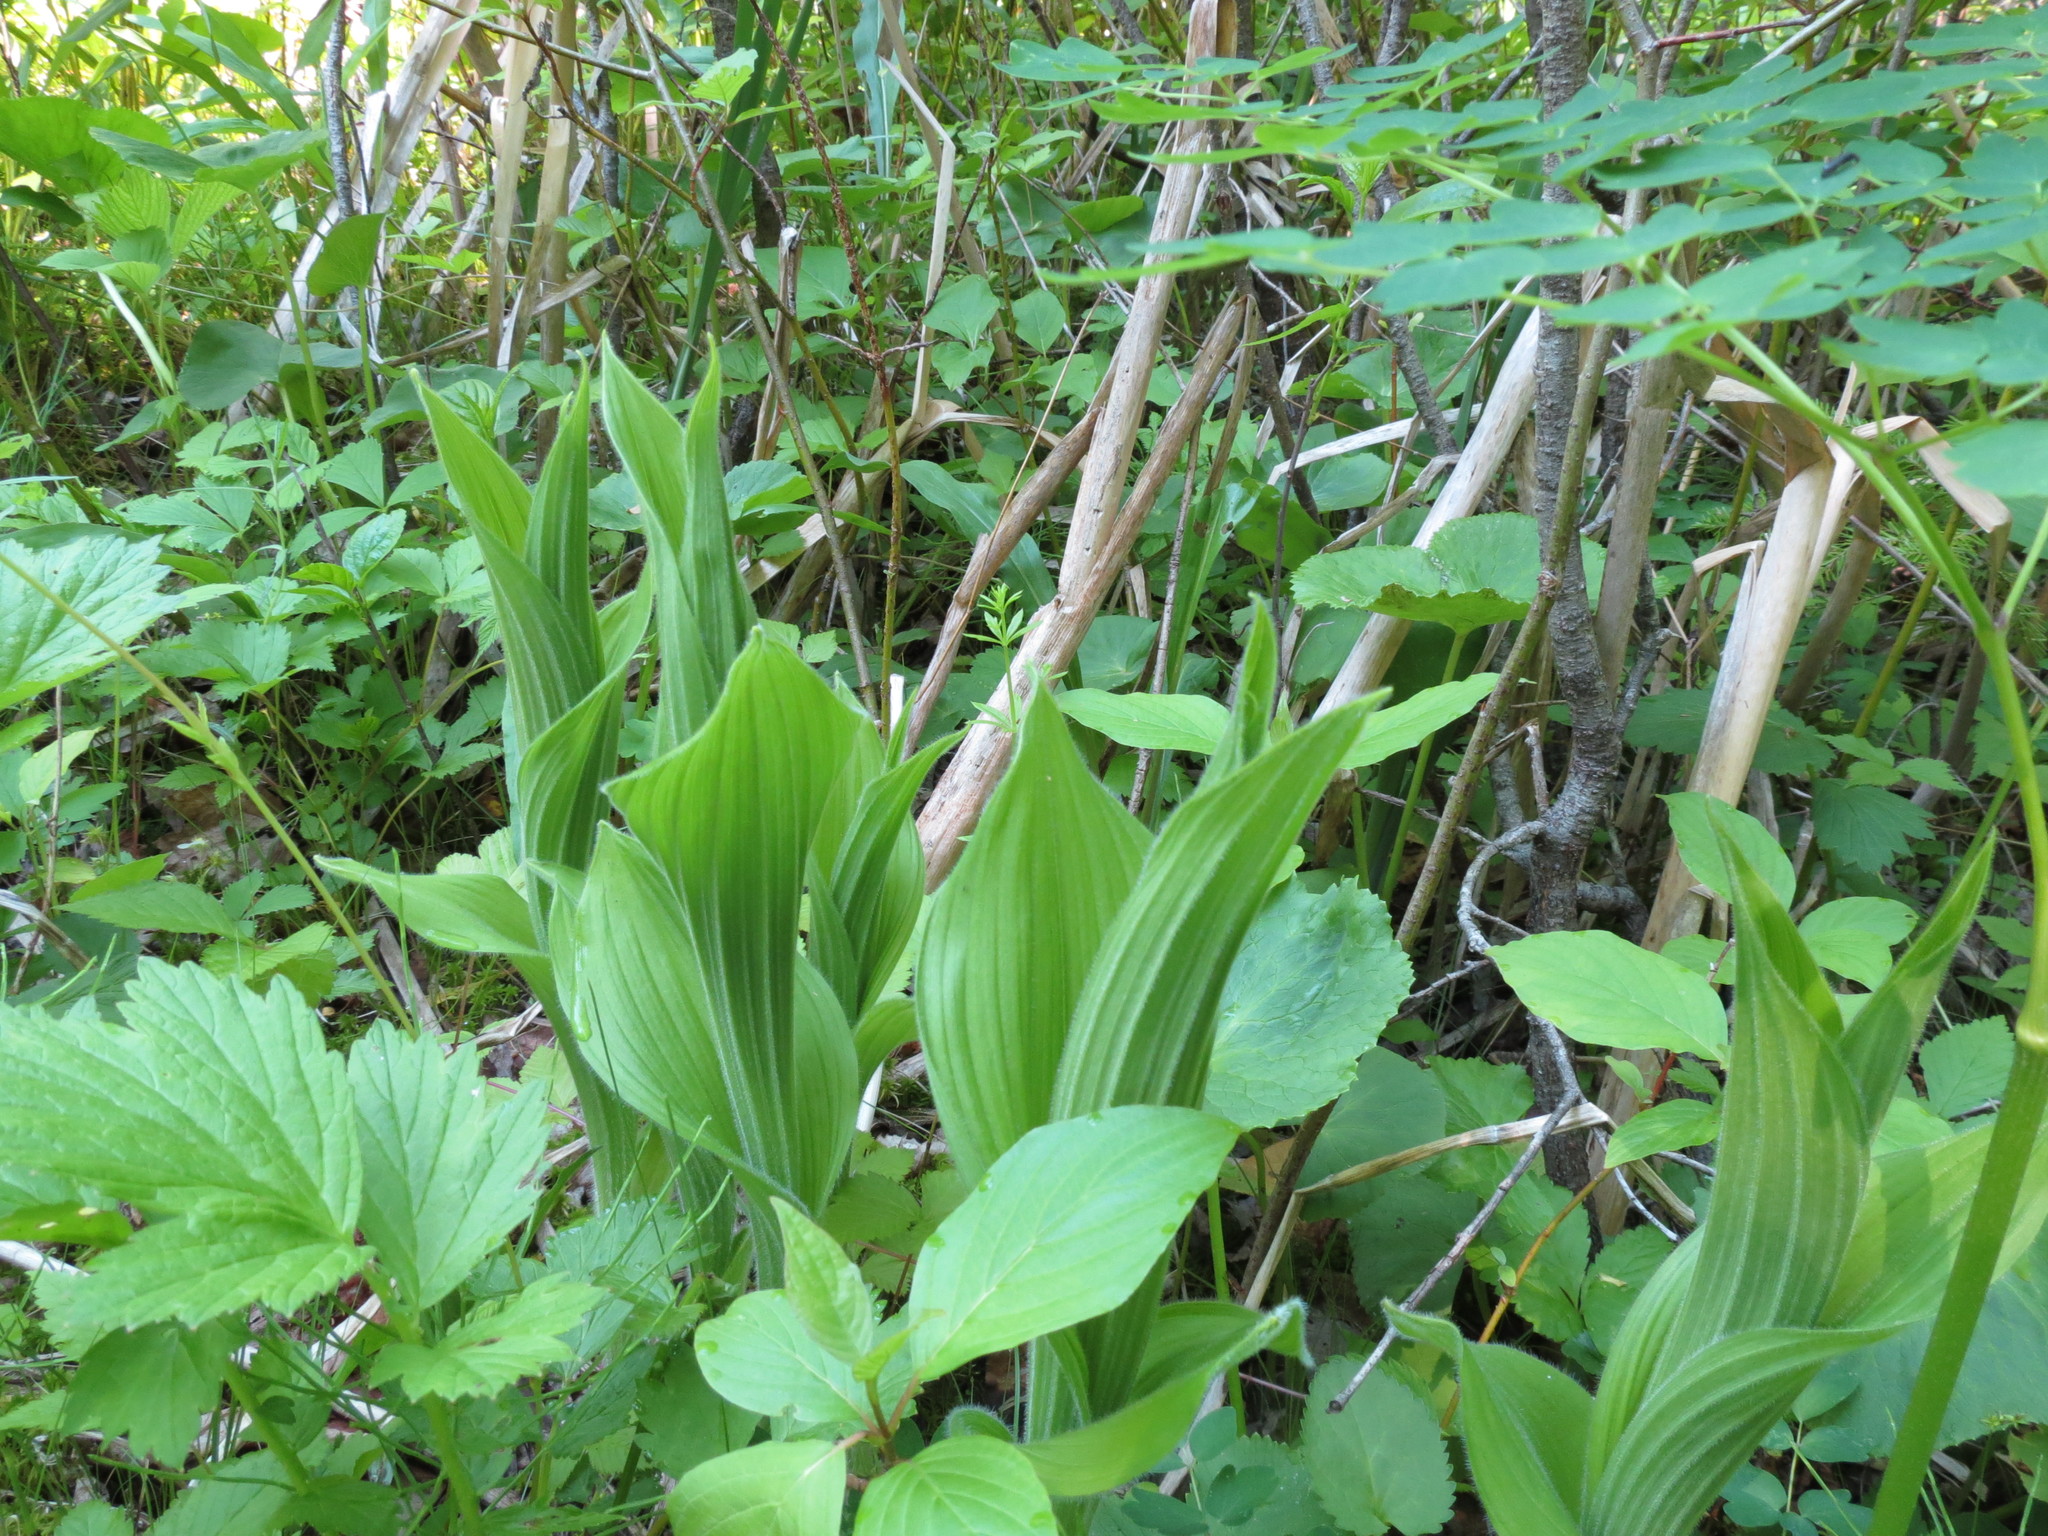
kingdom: Plantae
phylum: Tracheophyta
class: Liliopsida
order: Asparagales
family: Orchidaceae
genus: Cypripedium
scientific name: Cypripedium reginae
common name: Queen lady's-slipper
